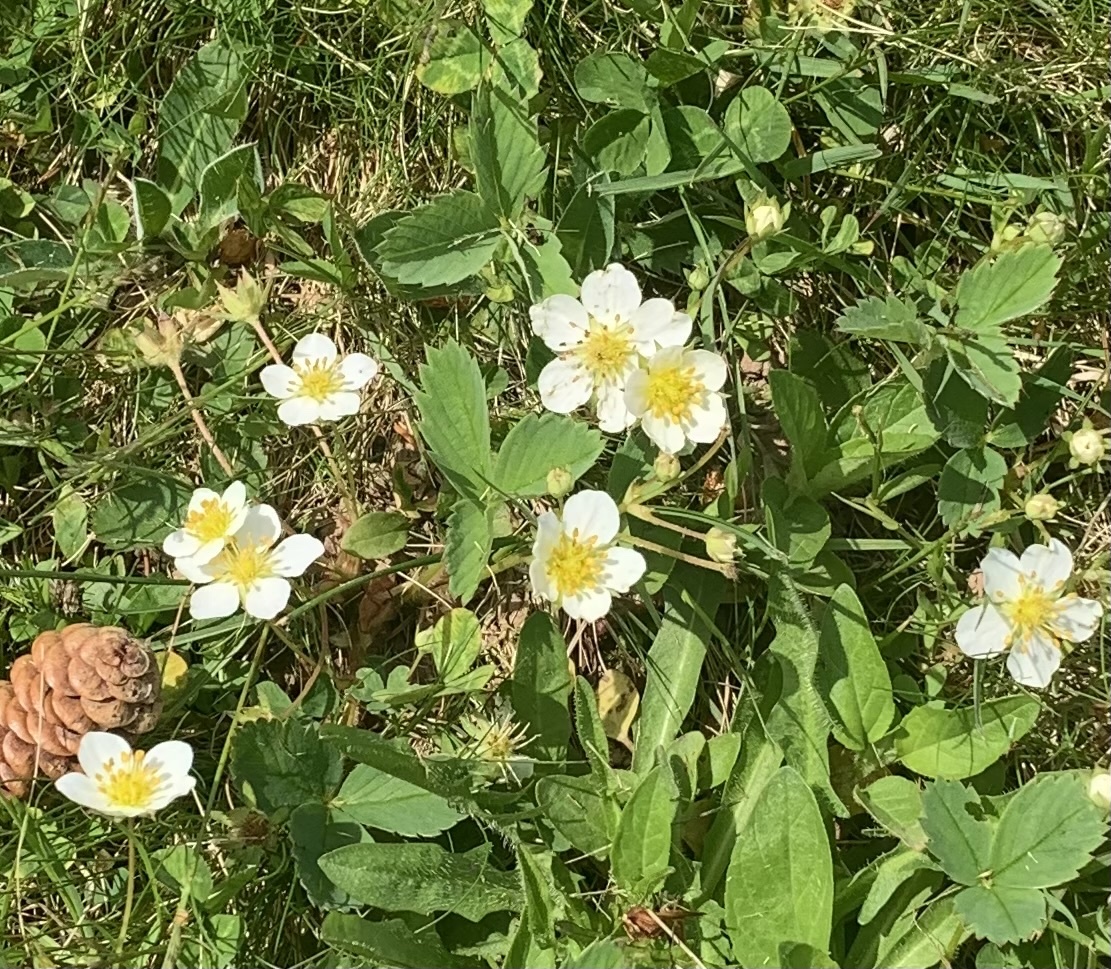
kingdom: Plantae
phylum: Tracheophyta
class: Magnoliopsida
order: Rosales
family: Rosaceae
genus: Fragaria
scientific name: Fragaria virginiana
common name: Thickleaved wild strawberry
